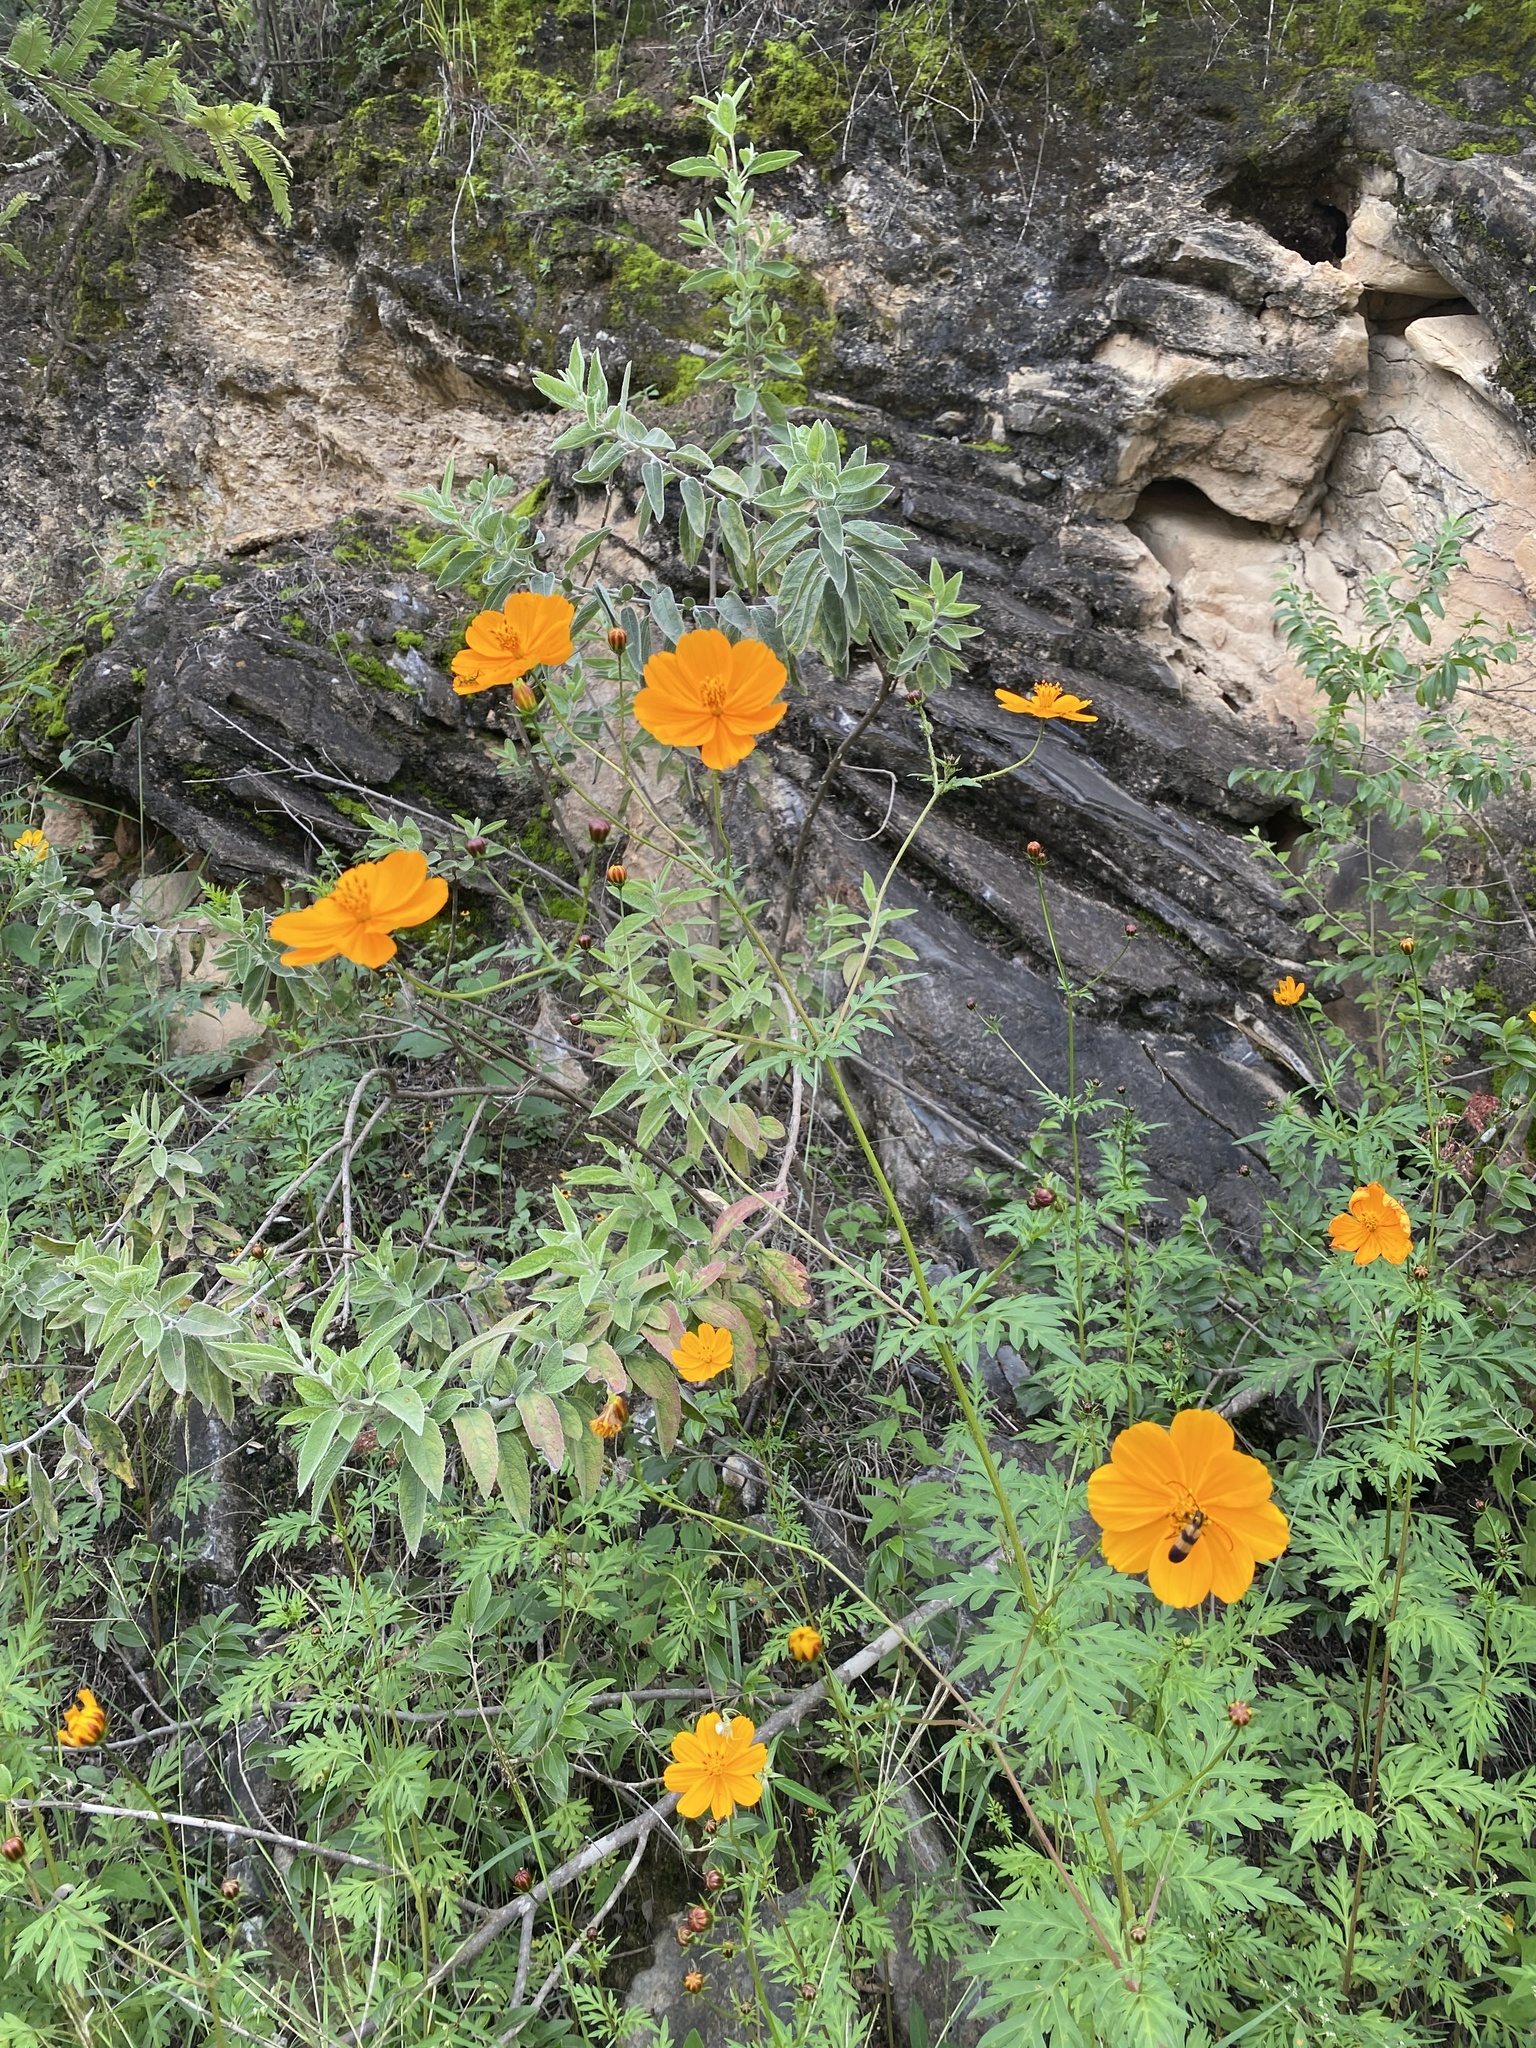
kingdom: Plantae
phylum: Tracheophyta
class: Magnoliopsida
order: Asterales
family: Asteraceae
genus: Cosmos
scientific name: Cosmos sulphureus
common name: Sulphur cosmos
